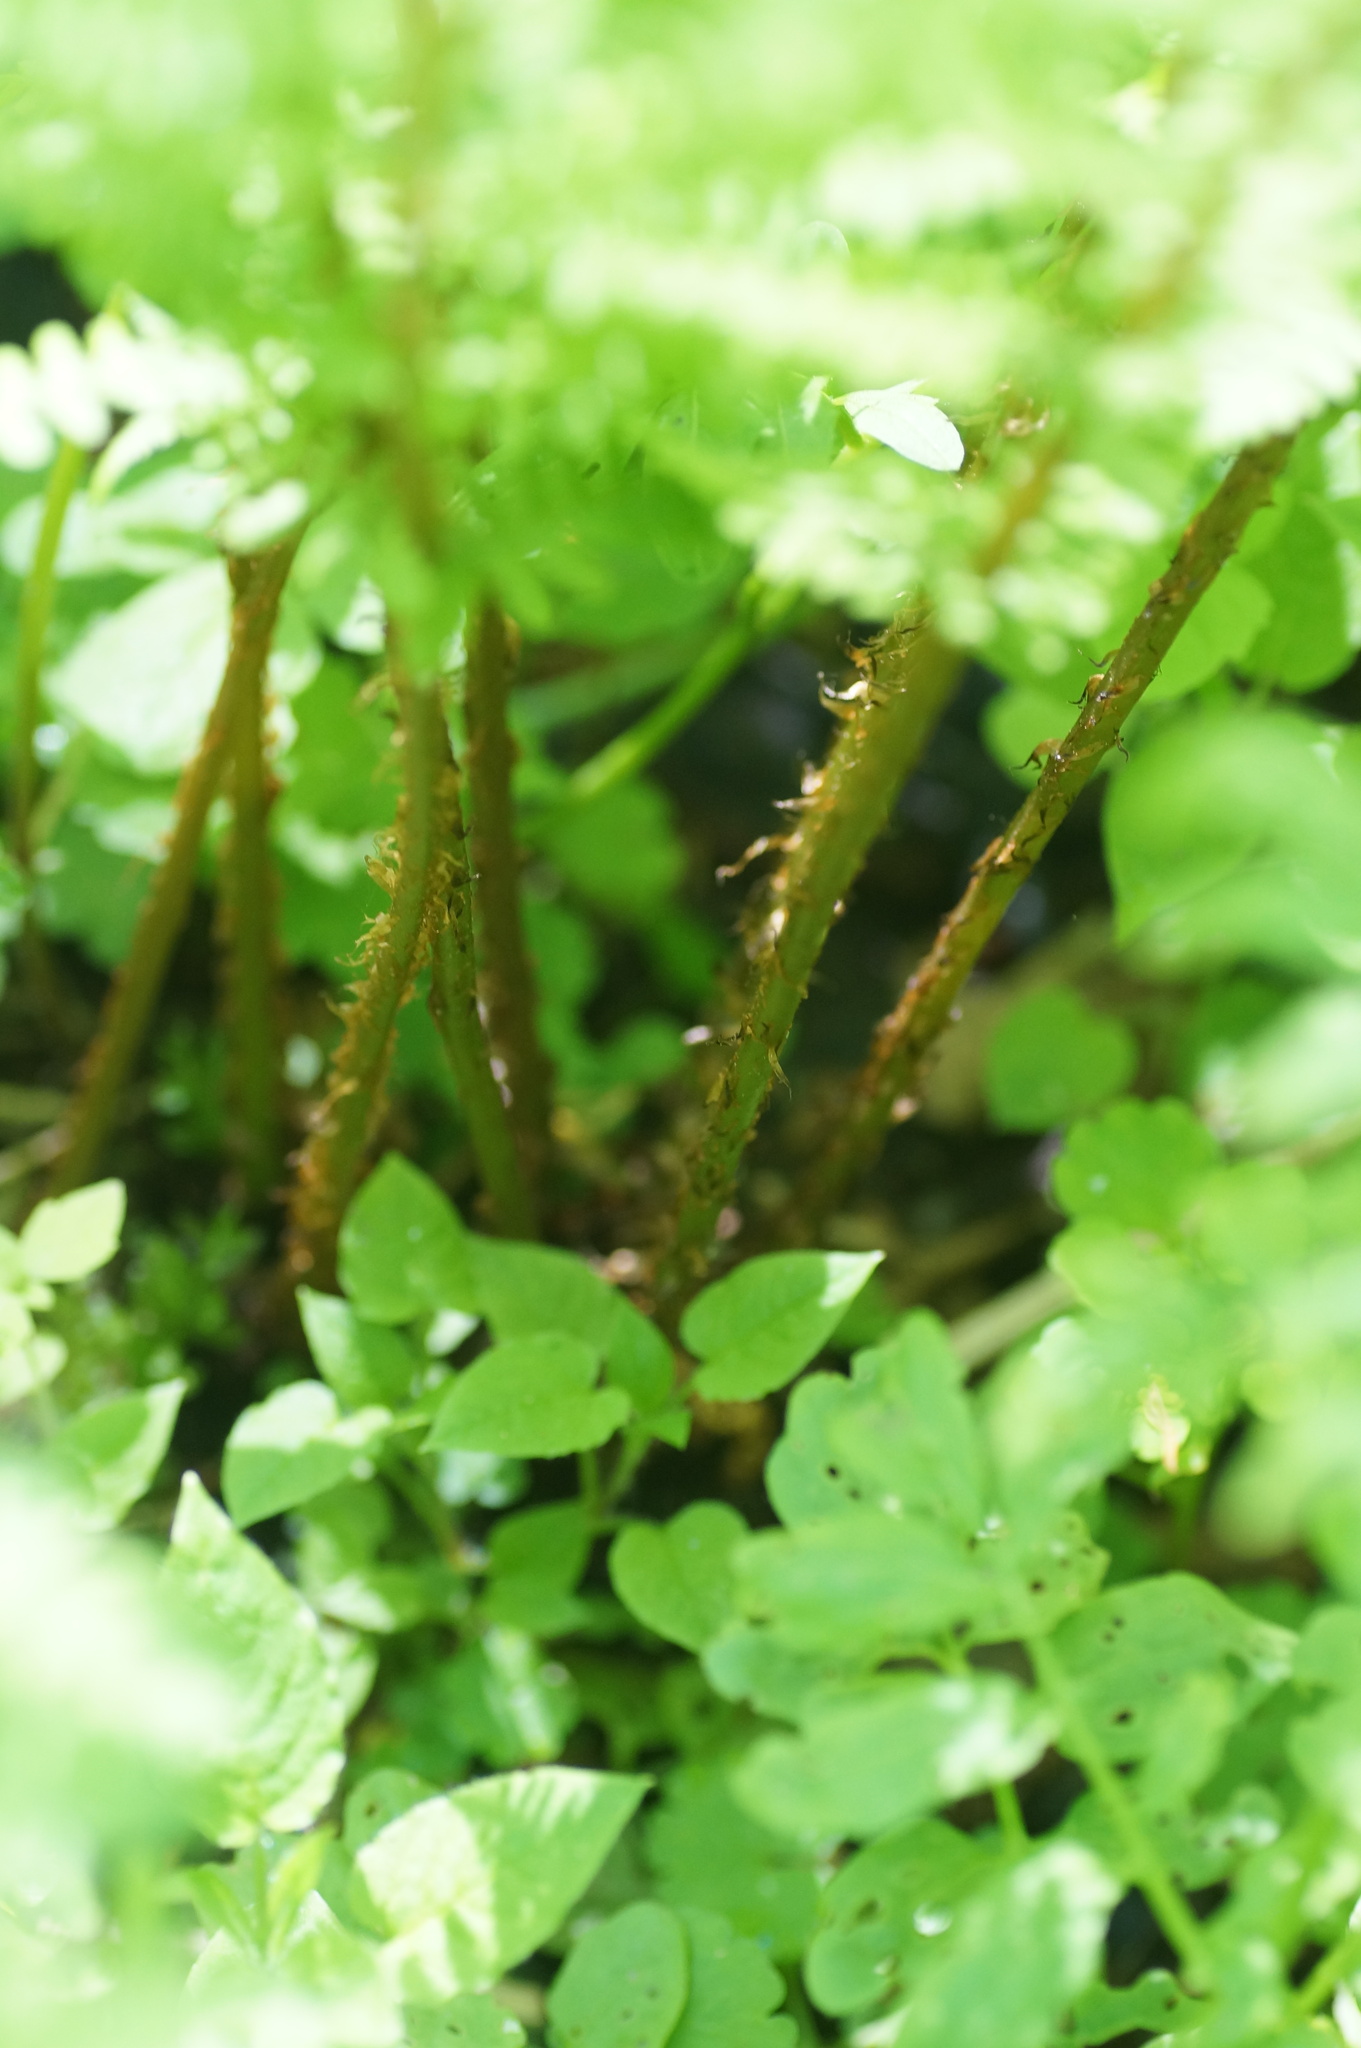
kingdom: Plantae
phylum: Tracheophyta
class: Polypodiopsida
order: Polypodiales
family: Athyriaceae
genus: Athyrium
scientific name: Athyrium filix-femina
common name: Lady fern
